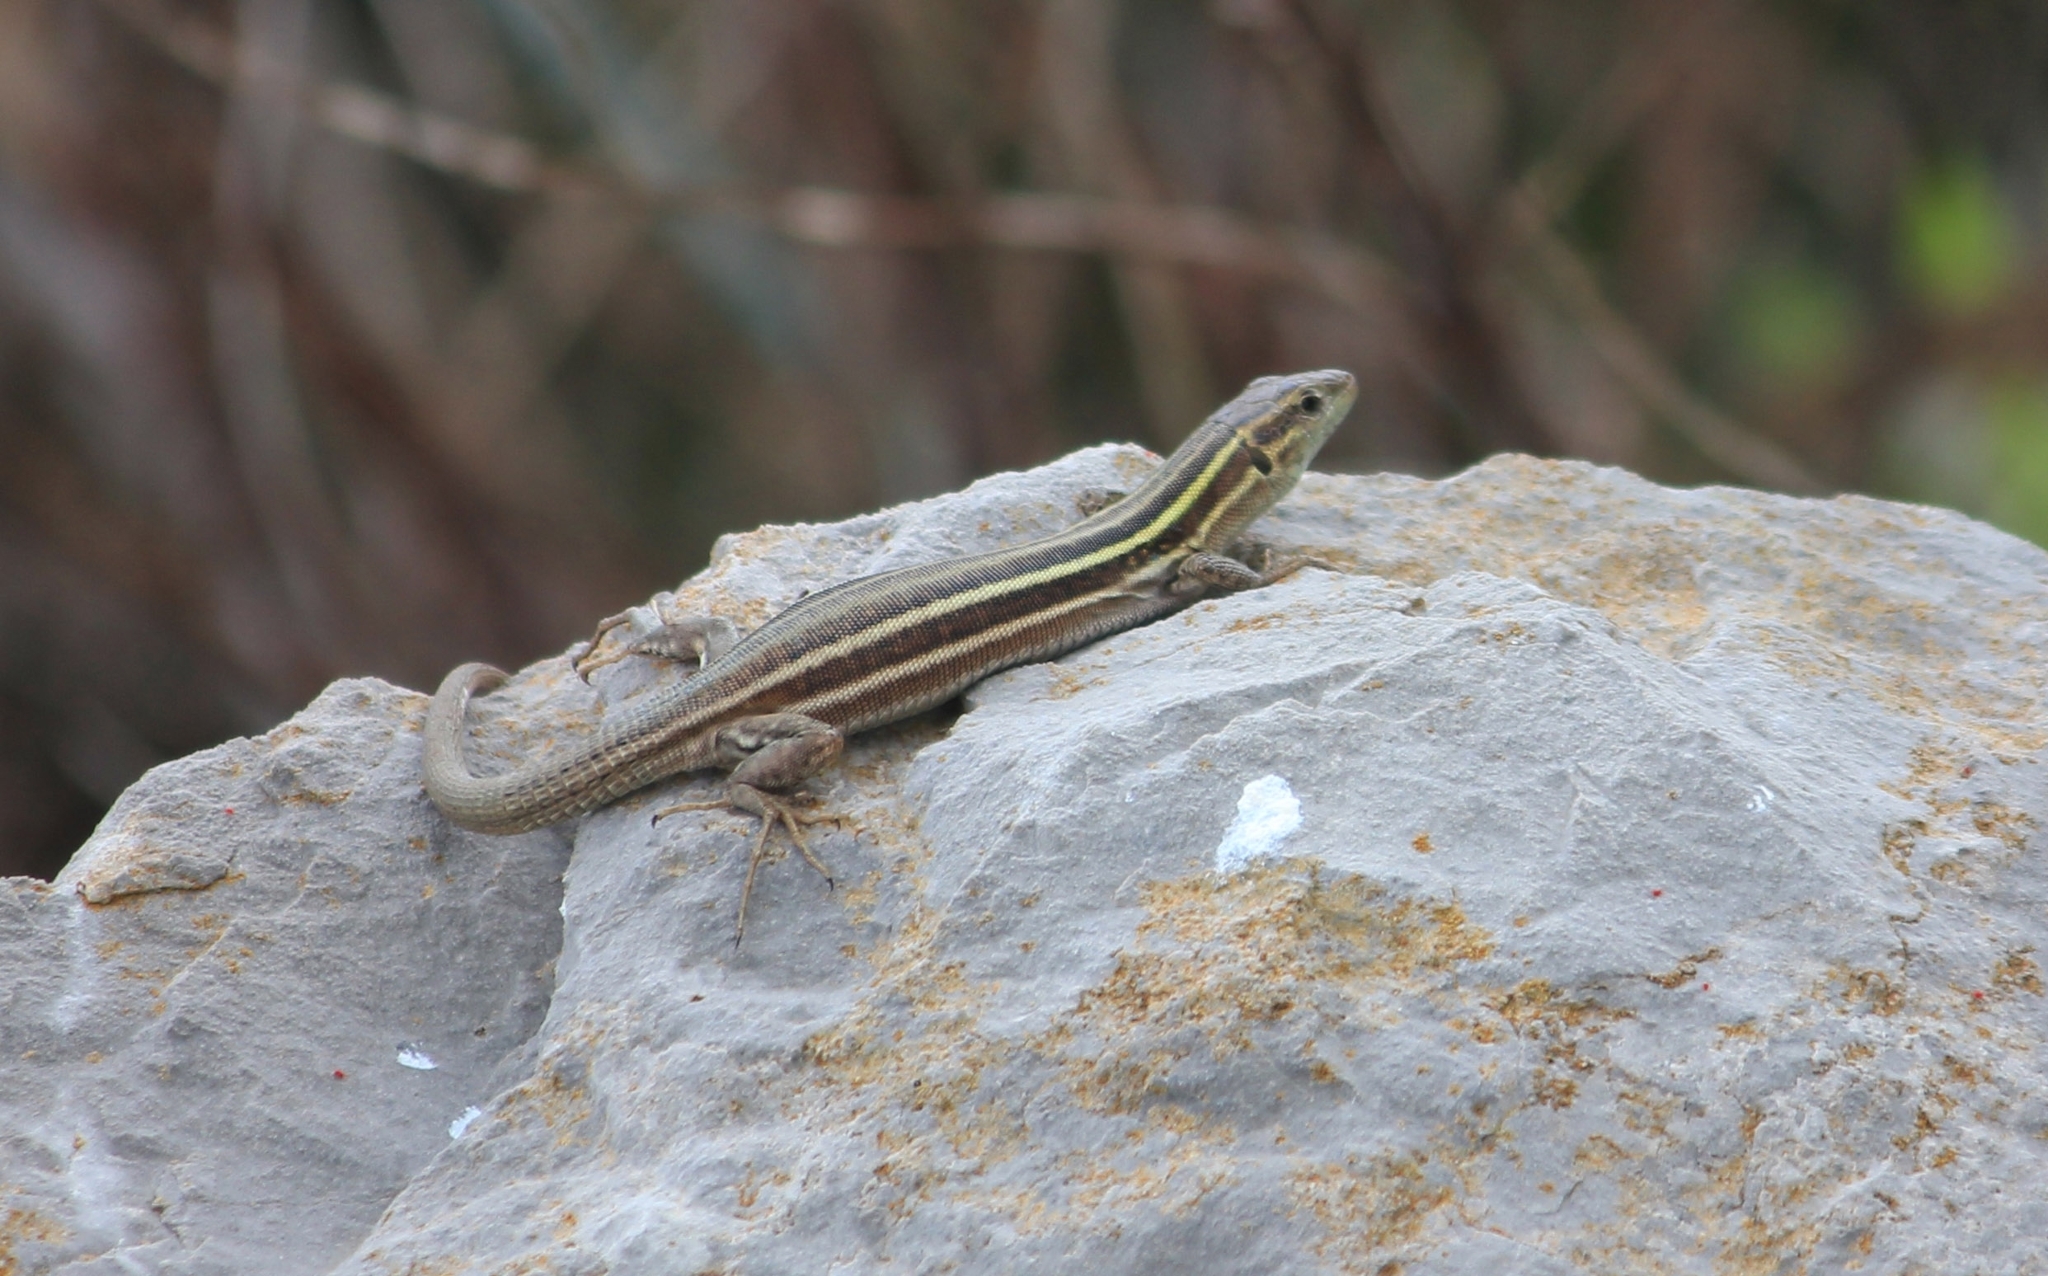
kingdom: Animalia
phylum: Chordata
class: Squamata
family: Lacertidae
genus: Podarcis
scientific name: Podarcis peloponnesiacus
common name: Peloponnese wall lizard
